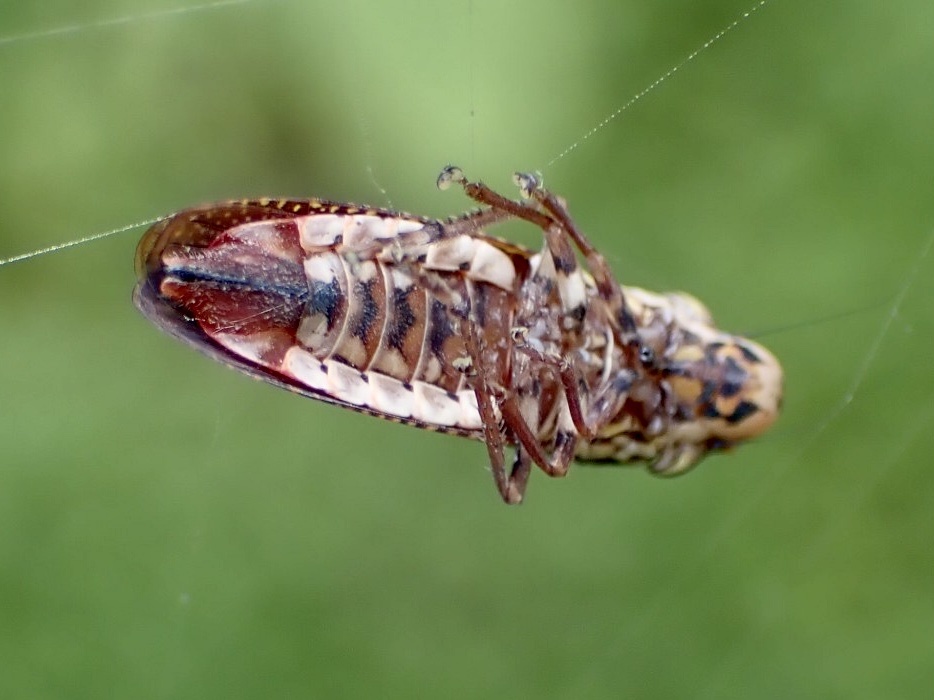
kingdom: Animalia
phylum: Arthropoda
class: Insecta
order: Hemiptera
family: Cicadellidae
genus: Paraulacizes
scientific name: Paraulacizes irrorata
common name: Speckled sharpshooter
